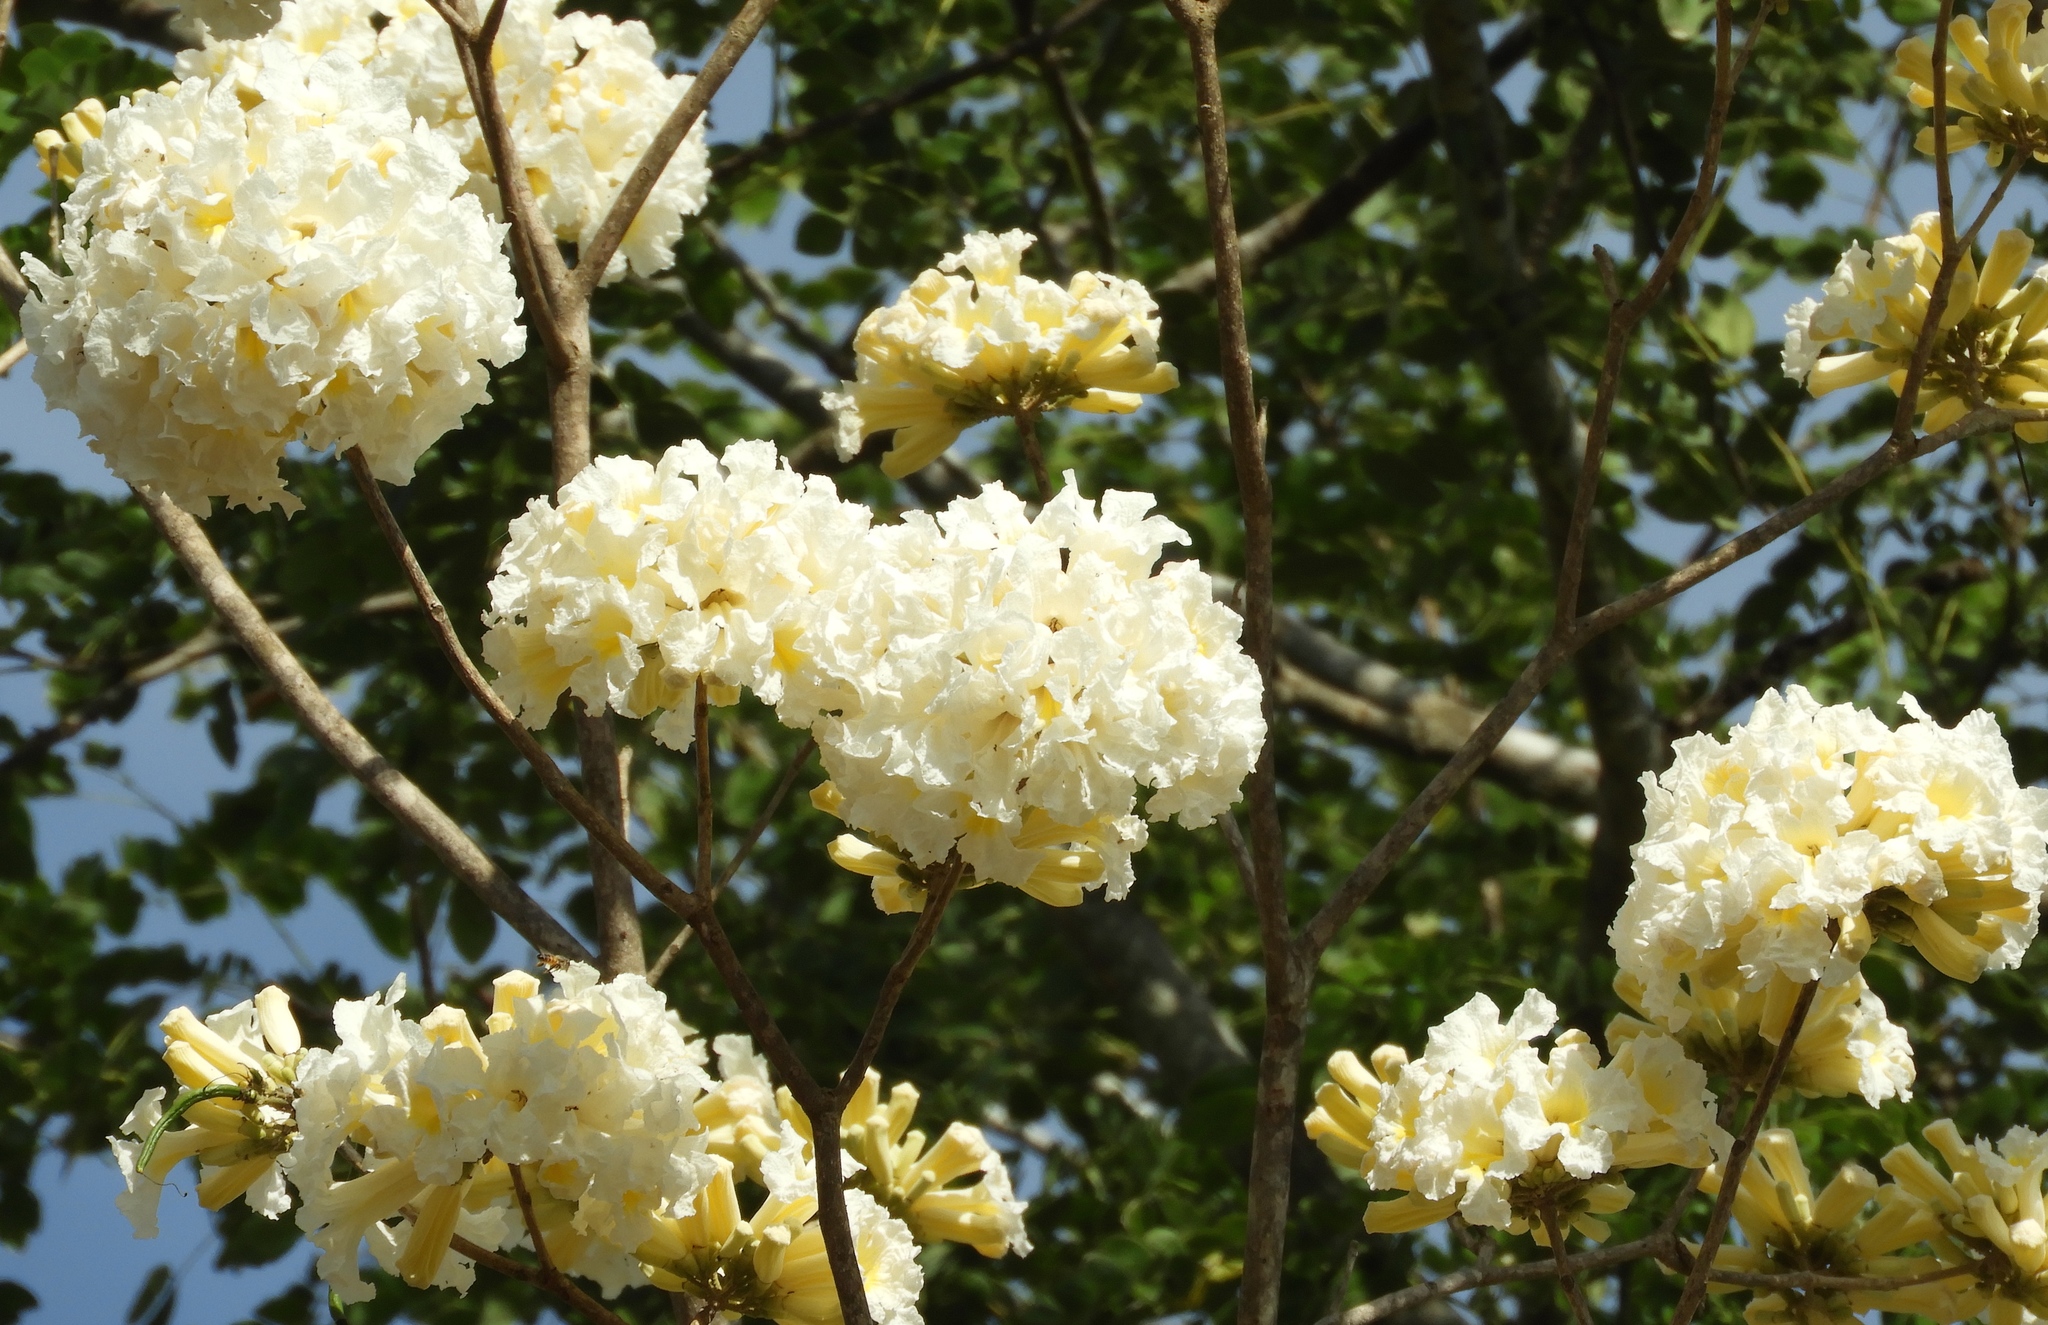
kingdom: Plantae
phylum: Tracheophyta
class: Magnoliopsida
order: Lamiales
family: Bignoniaceae
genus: Handroanthus
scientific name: Handroanthus impetiginosum
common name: Pink trumpet tree
